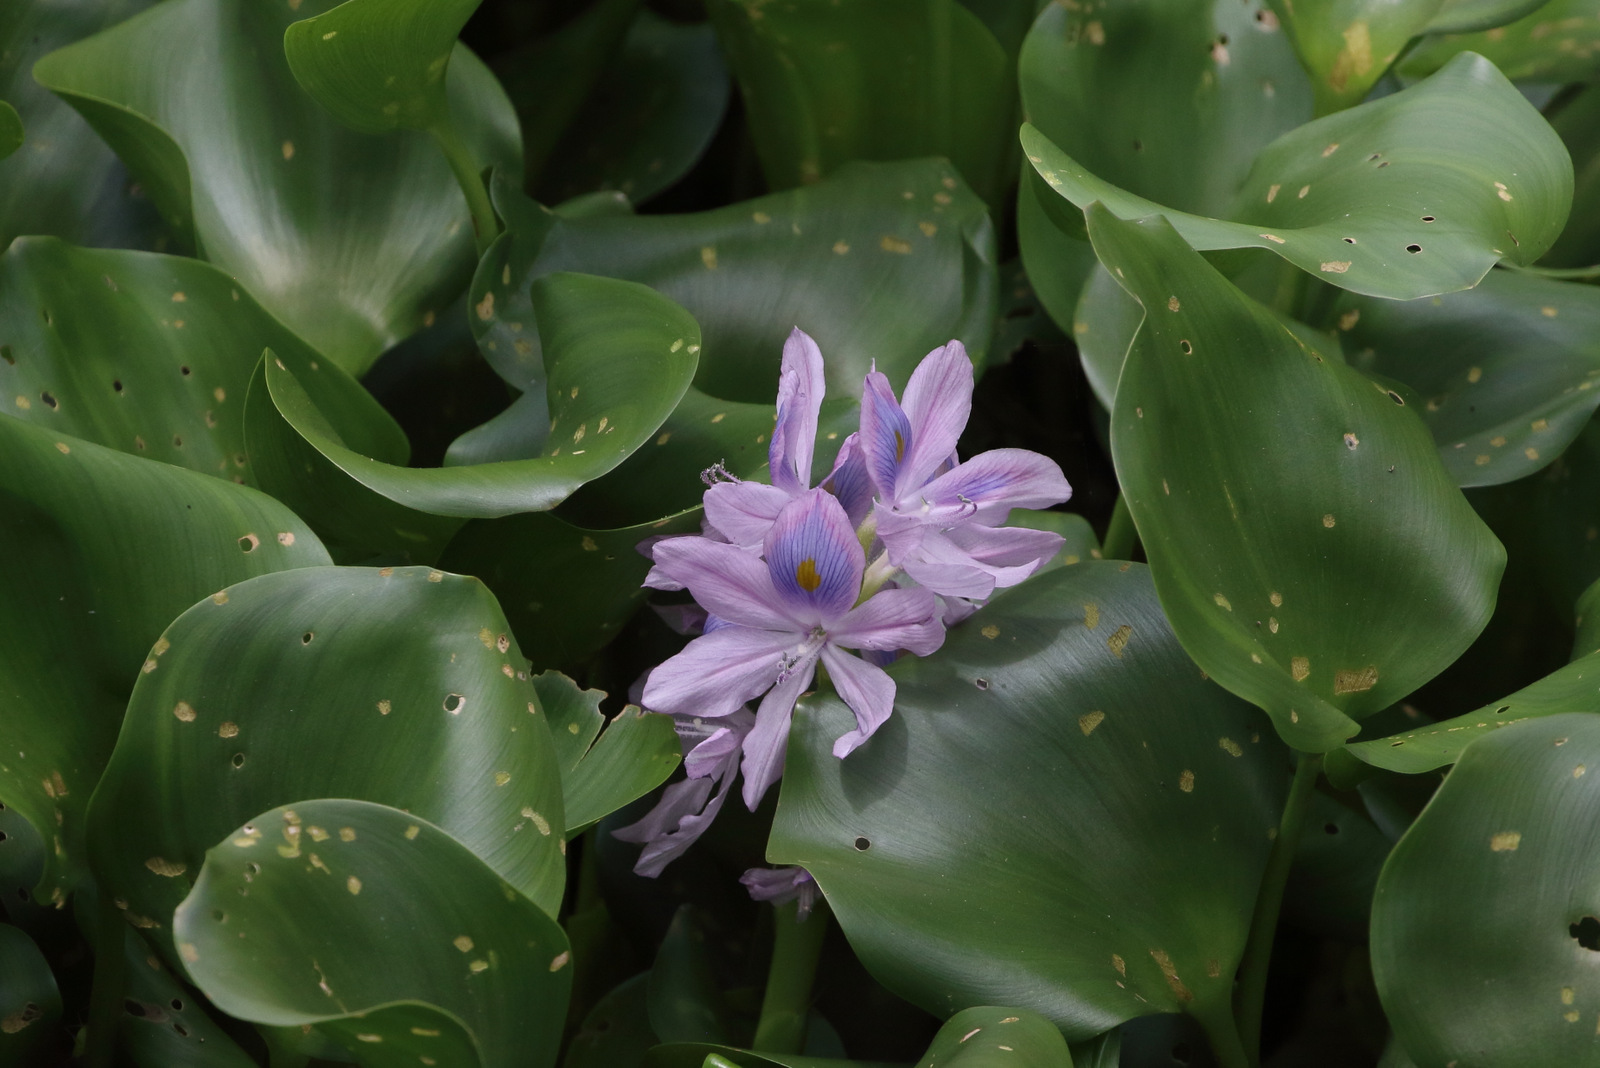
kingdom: Plantae
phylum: Tracheophyta
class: Liliopsida
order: Commelinales
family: Pontederiaceae
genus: Pontederia
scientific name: Pontederia crassipes
